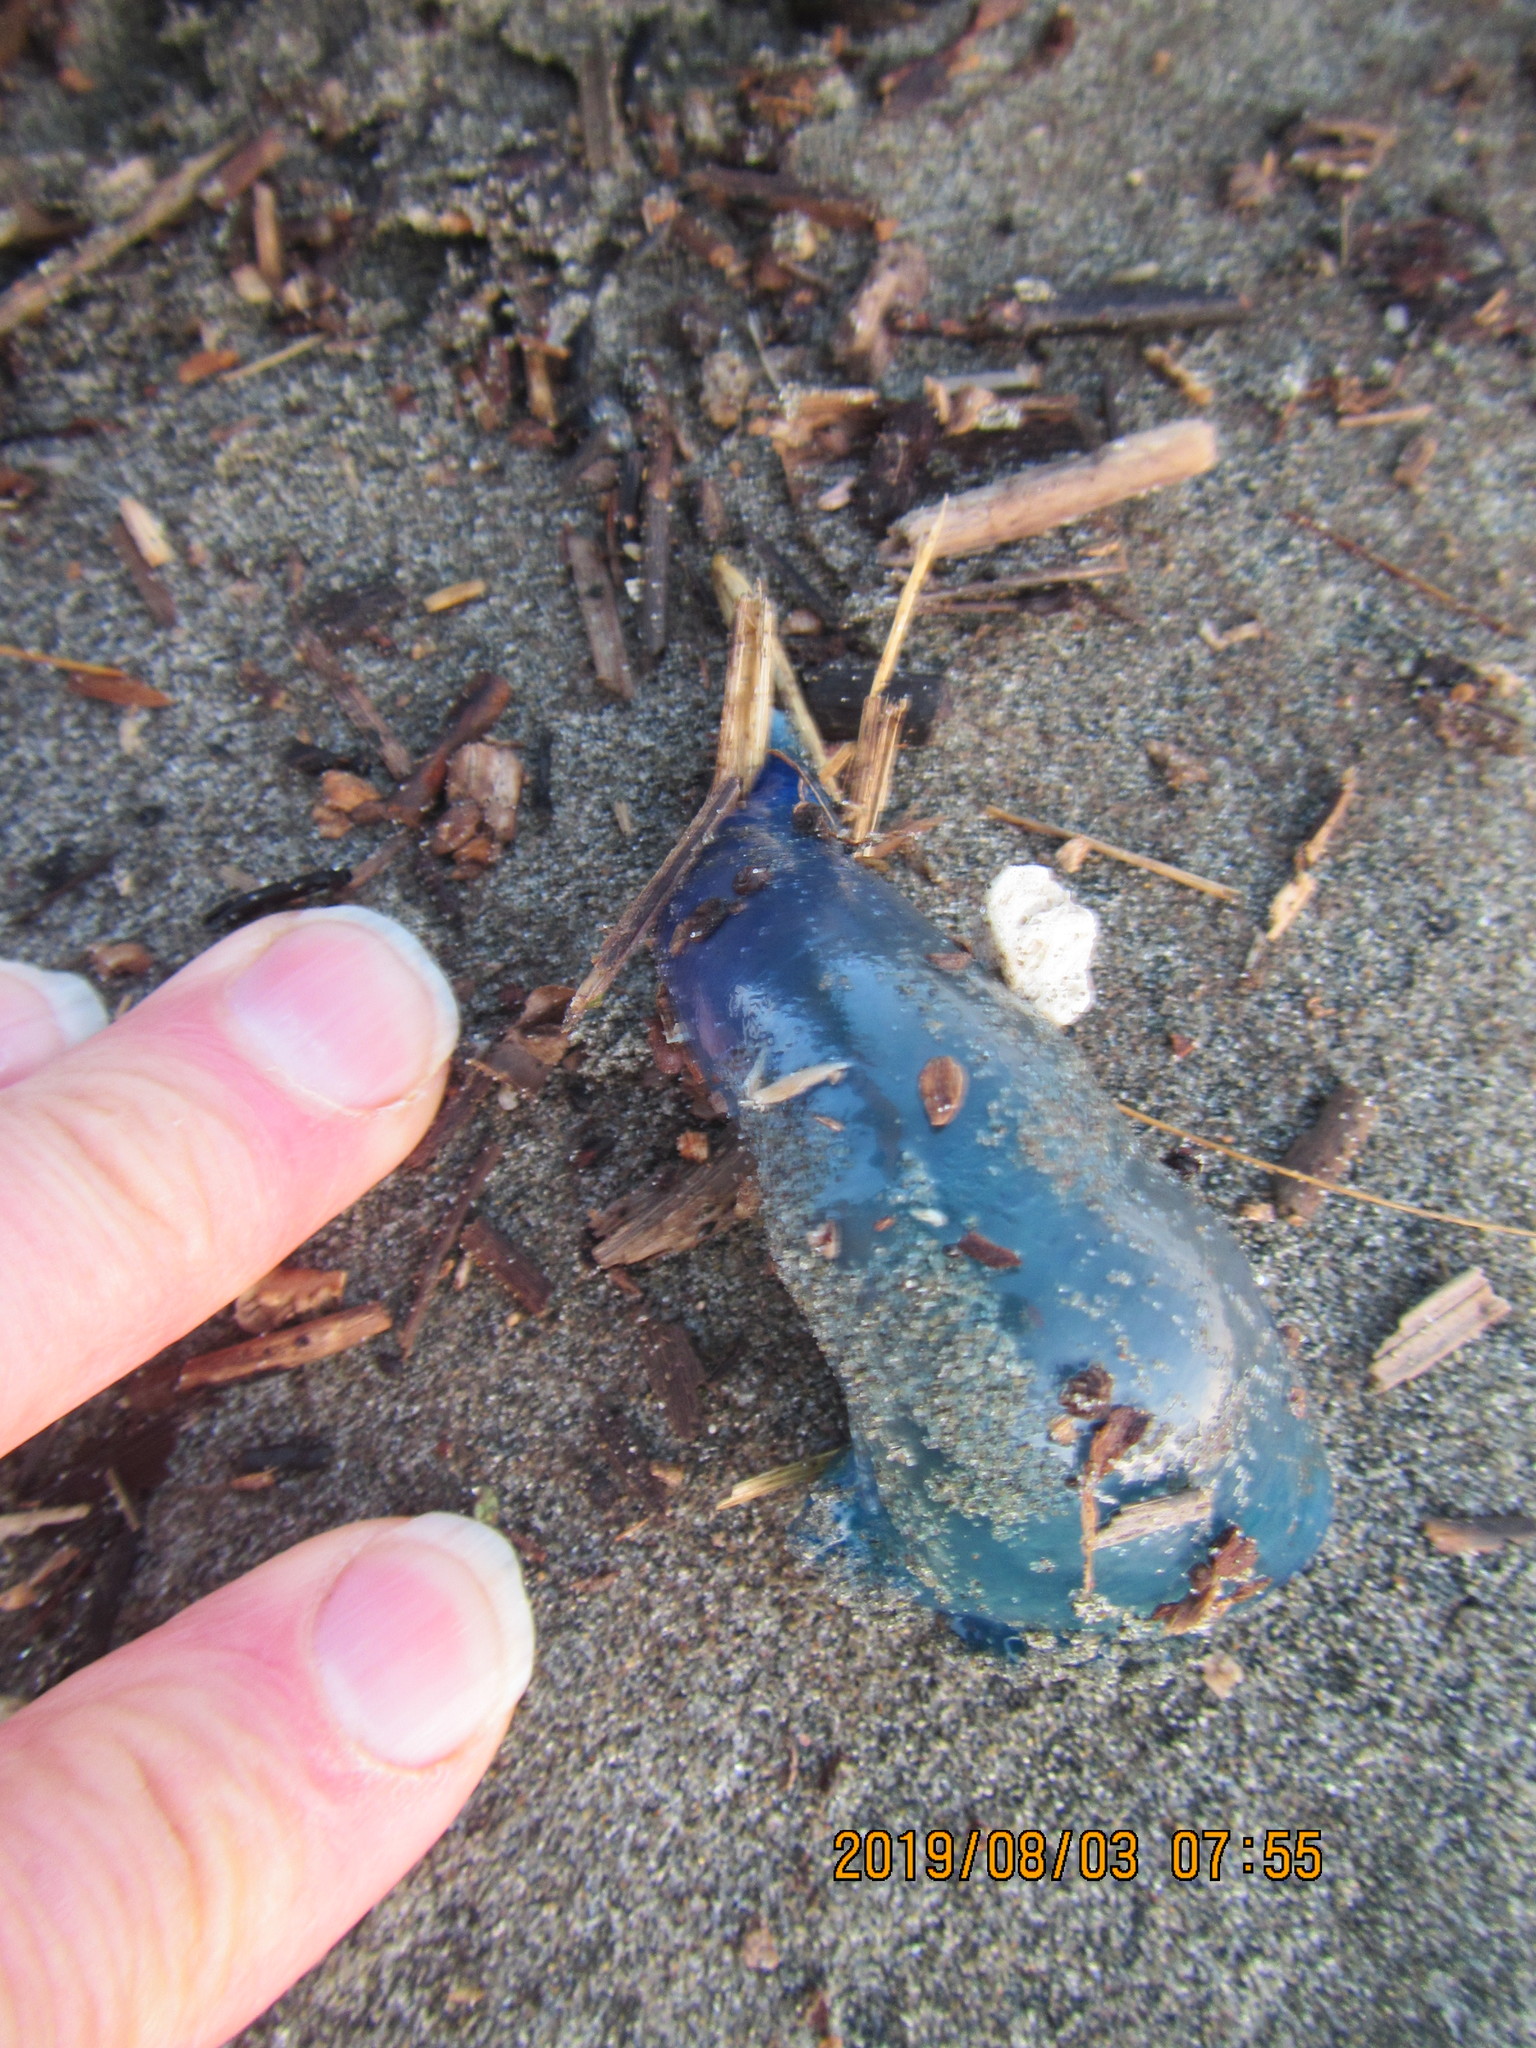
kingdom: Animalia
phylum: Cnidaria
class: Hydrozoa
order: Siphonophorae
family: Physaliidae
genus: Physalia
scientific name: Physalia physalis
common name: Portuguese man-of-war
